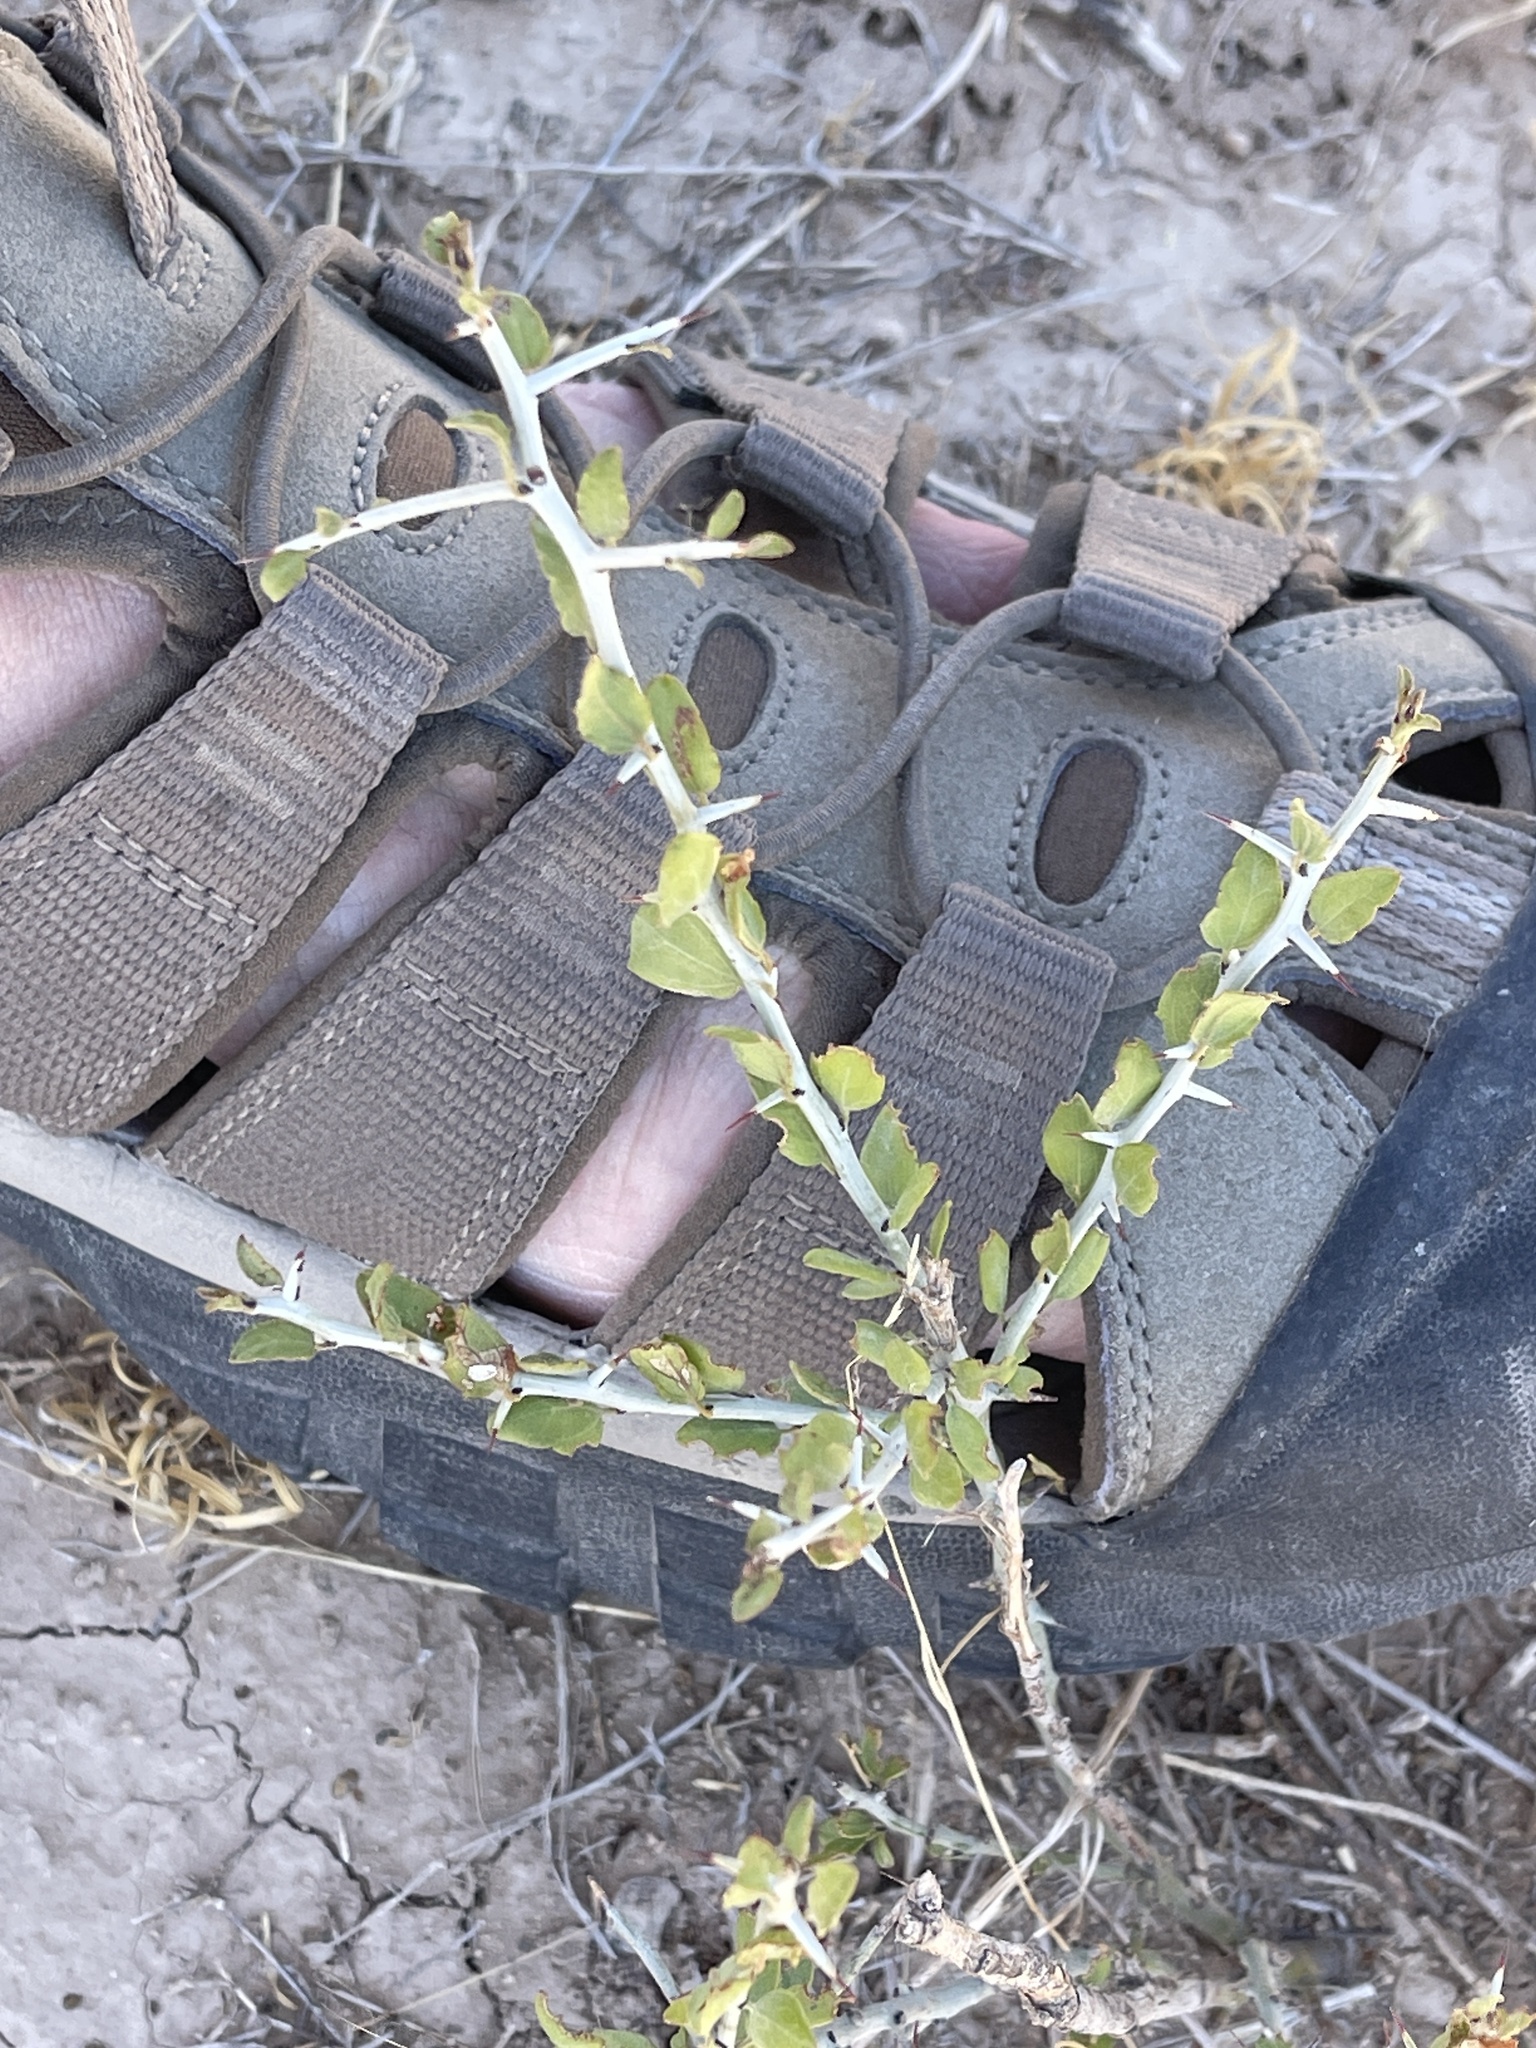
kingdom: Plantae
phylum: Tracheophyta
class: Magnoliopsida
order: Rosales
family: Rhamnaceae
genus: Sarcomphalus
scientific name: Sarcomphalus obtusifolius
